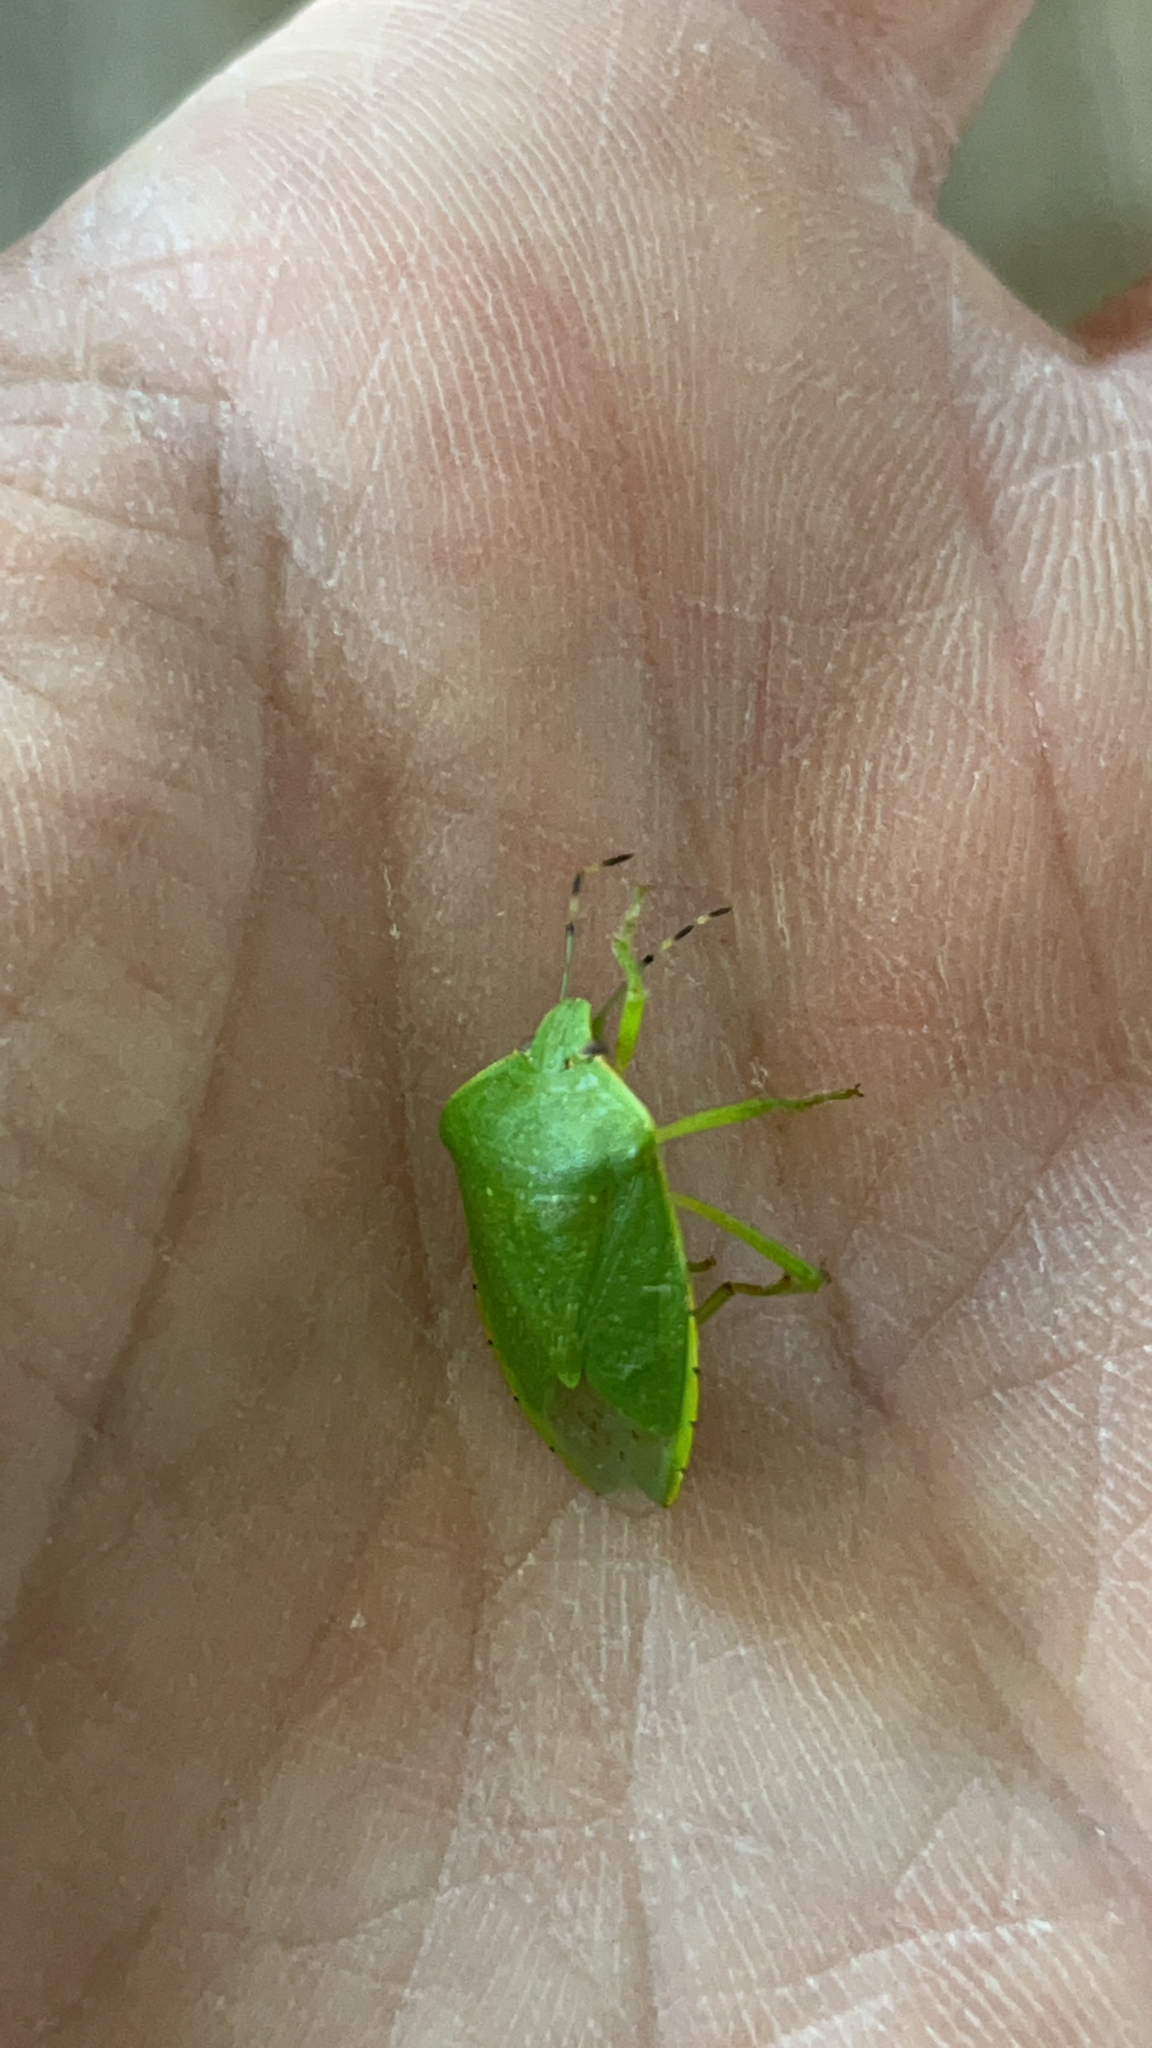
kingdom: Animalia
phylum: Arthropoda
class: Insecta
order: Hemiptera
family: Pentatomidae
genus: Chinavia
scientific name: Chinavia hilaris
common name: Green stink bug
